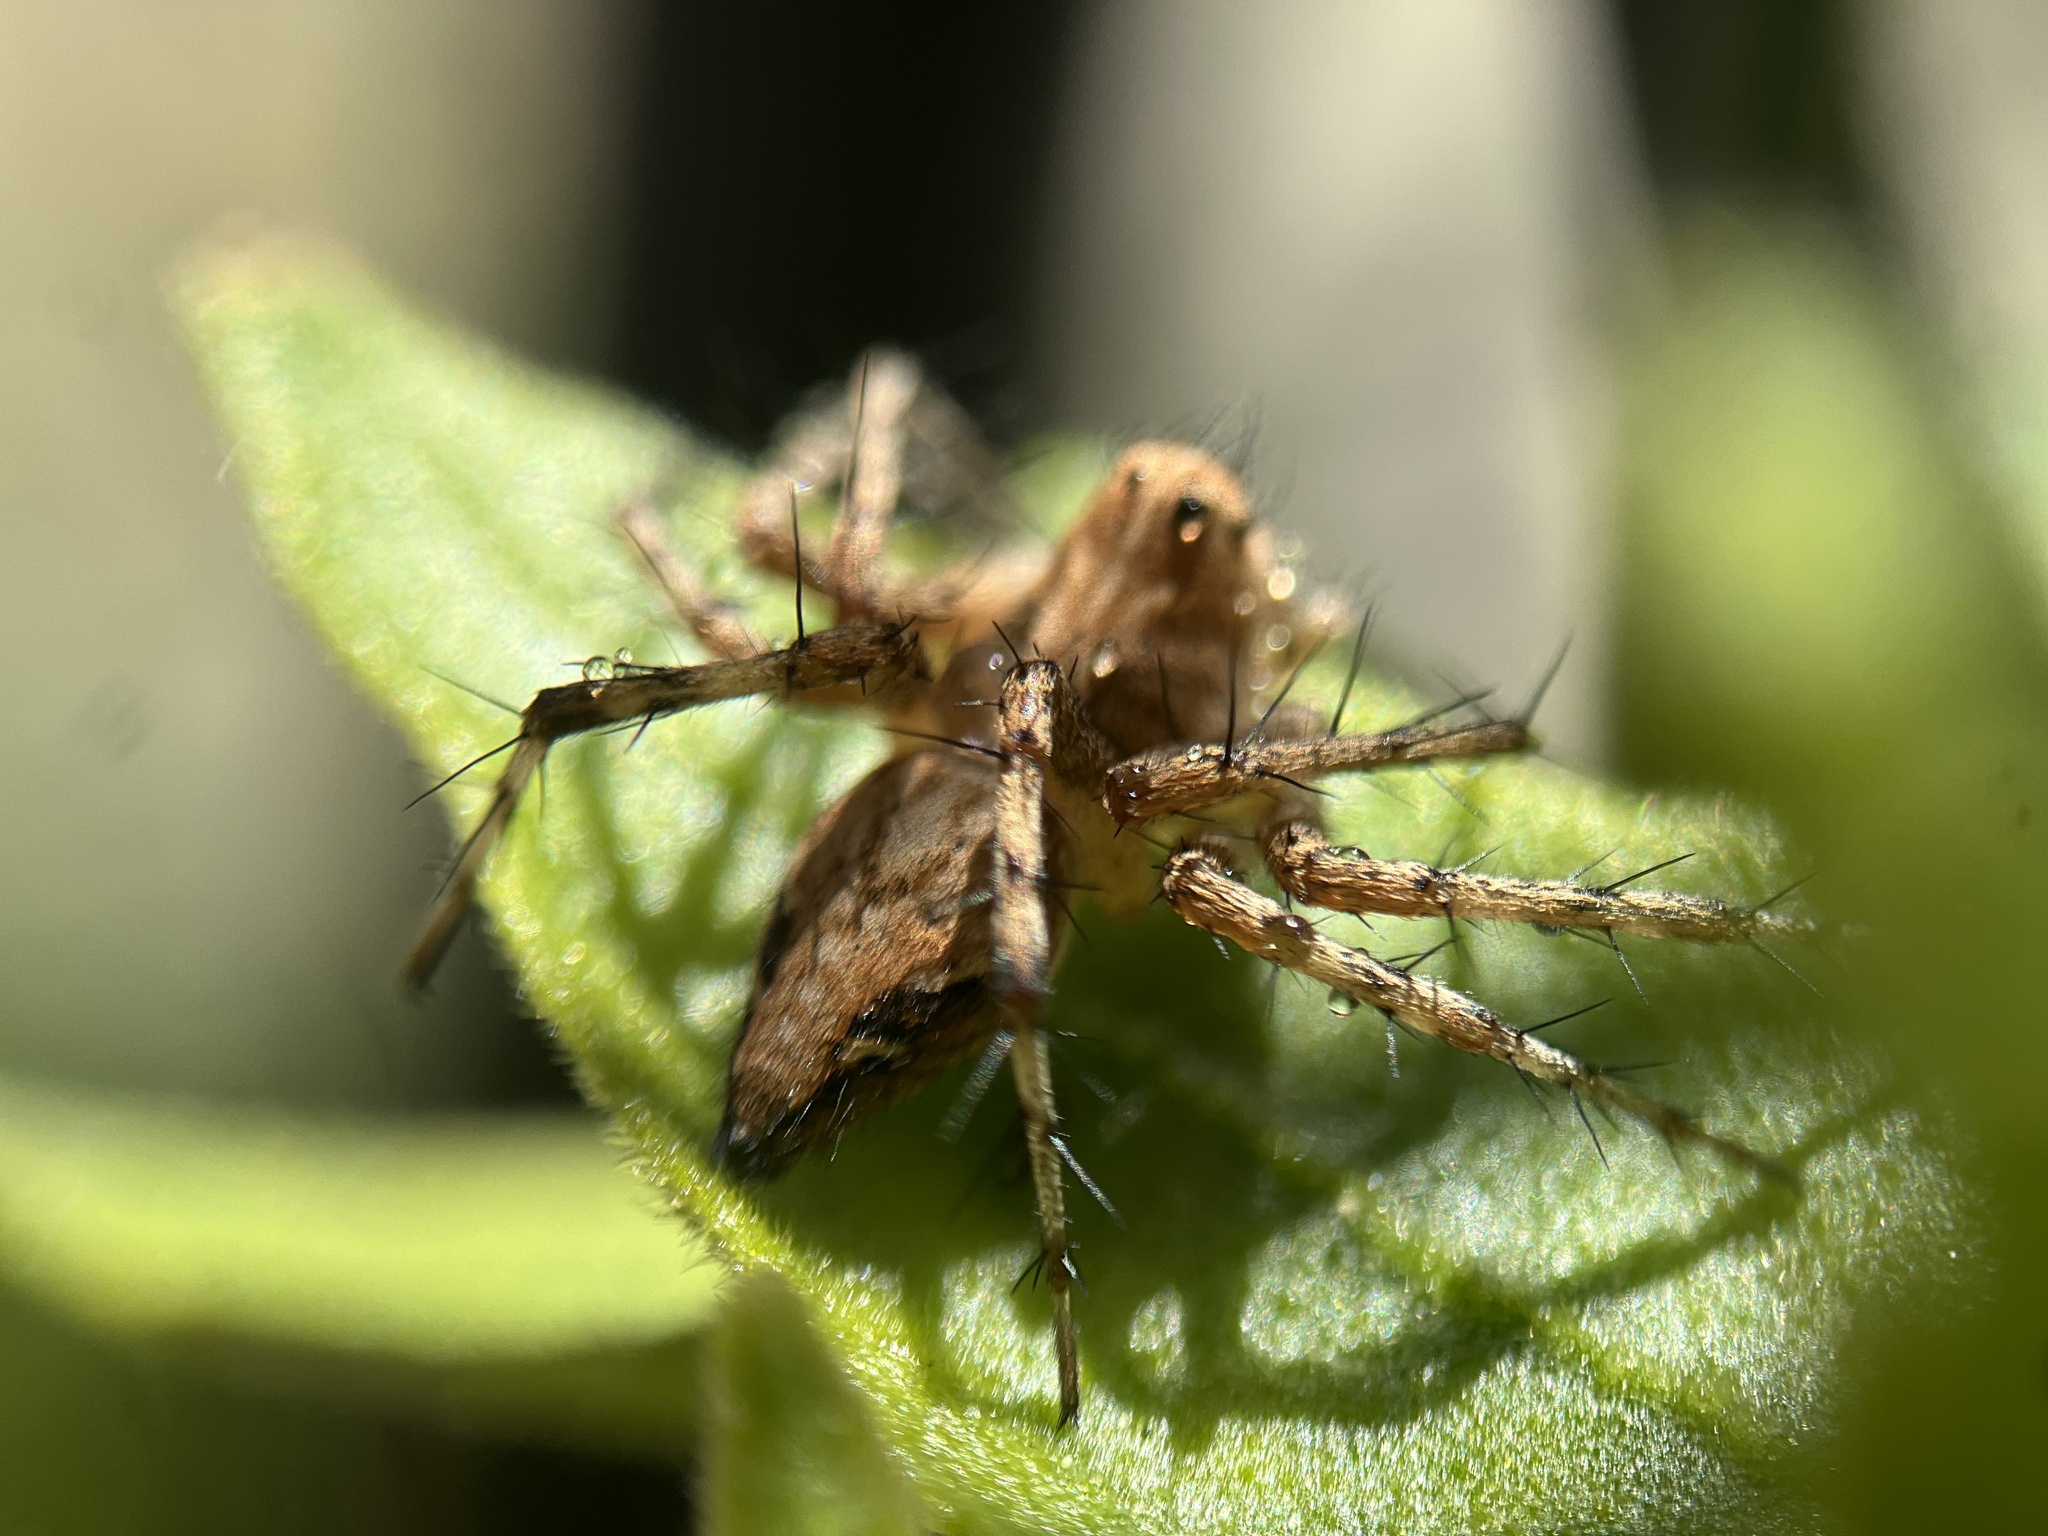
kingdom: Animalia
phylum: Arthropoda
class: Arachnida
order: Araneae
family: Oxyopidae
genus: Oxyopes
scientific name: Oxyopes scalaris
